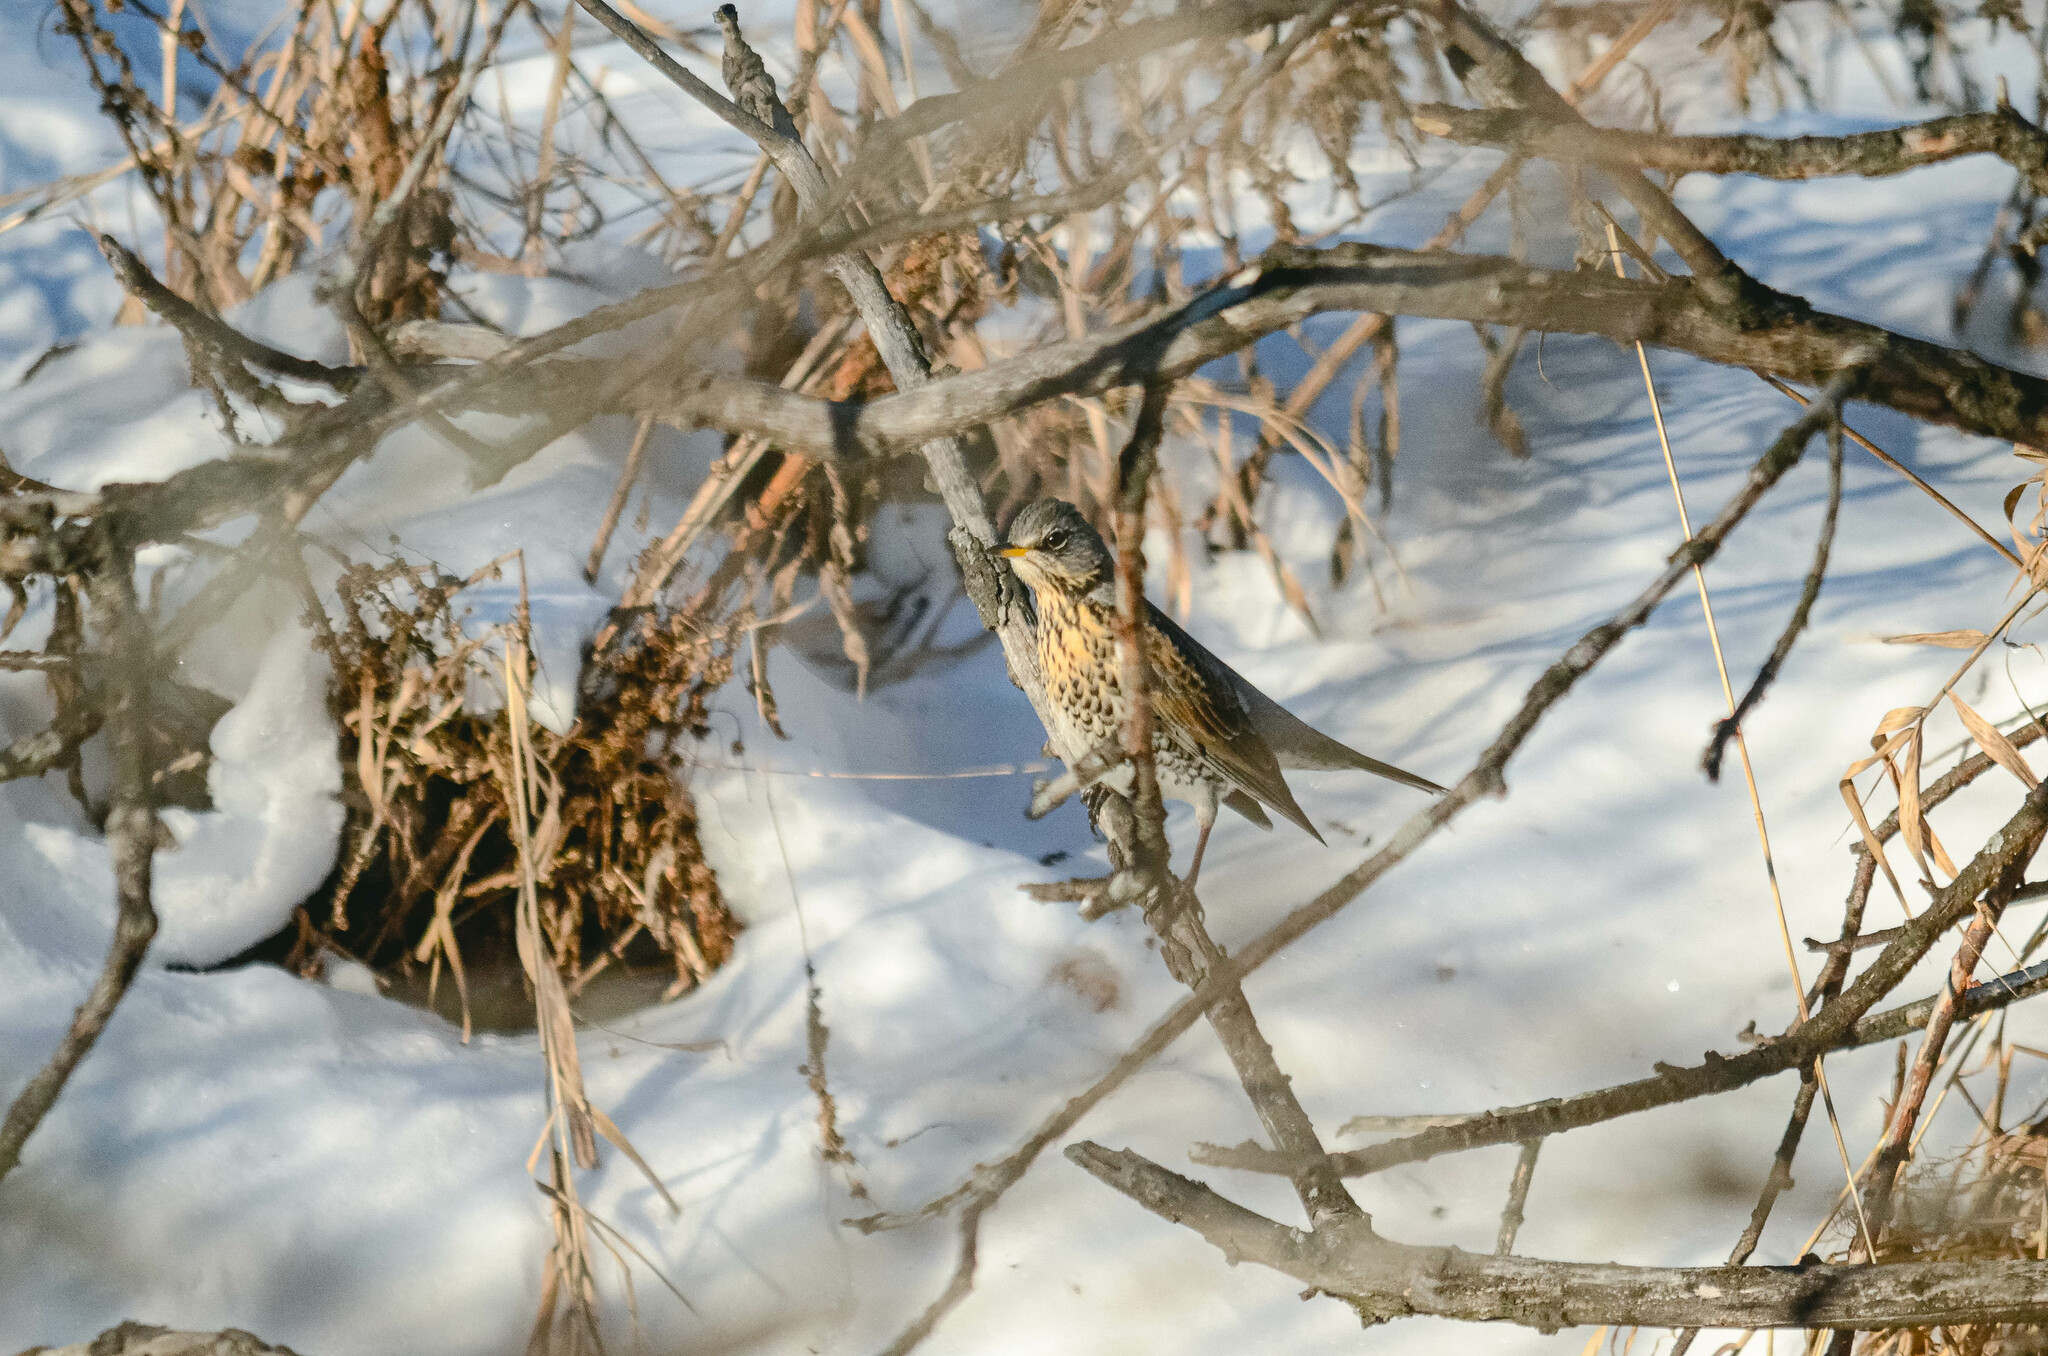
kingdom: Animalia
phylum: Chordata
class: Aves
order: Passeriformes
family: Turdidae
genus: Turdus
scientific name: Turdus pilaris
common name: Fieldfare
